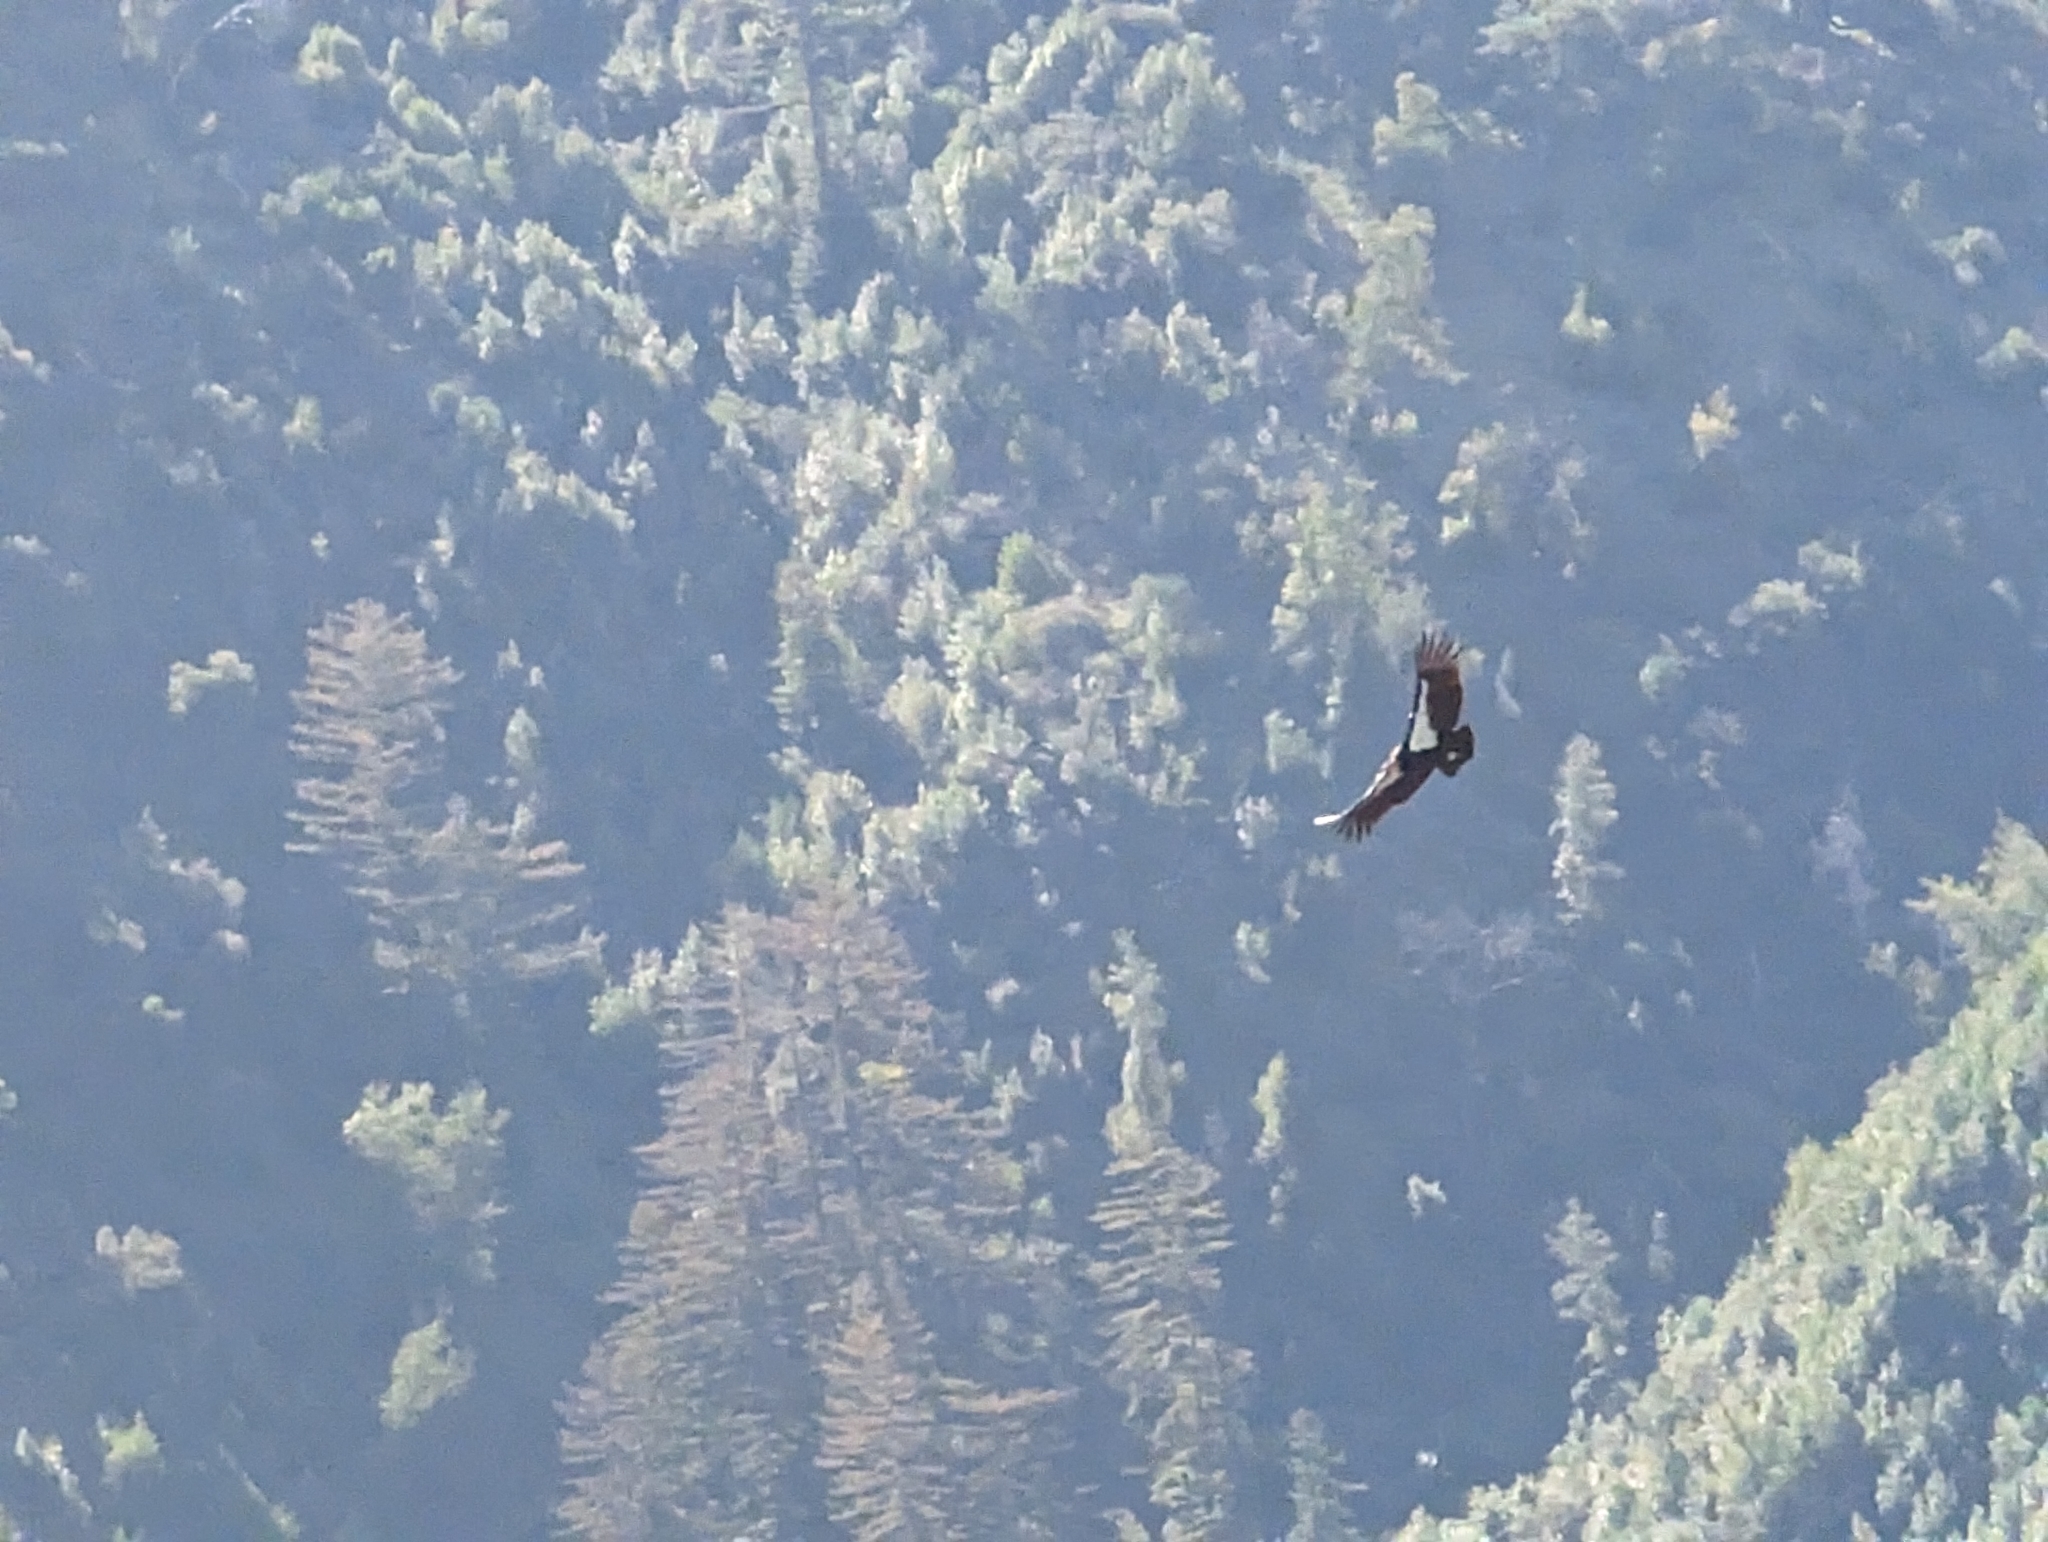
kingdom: Animalia
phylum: Chordata
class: Aves
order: Accipitriformes
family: Cathartidae
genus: Gymnogyps
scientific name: Gymnogyps californianus
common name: California condor
